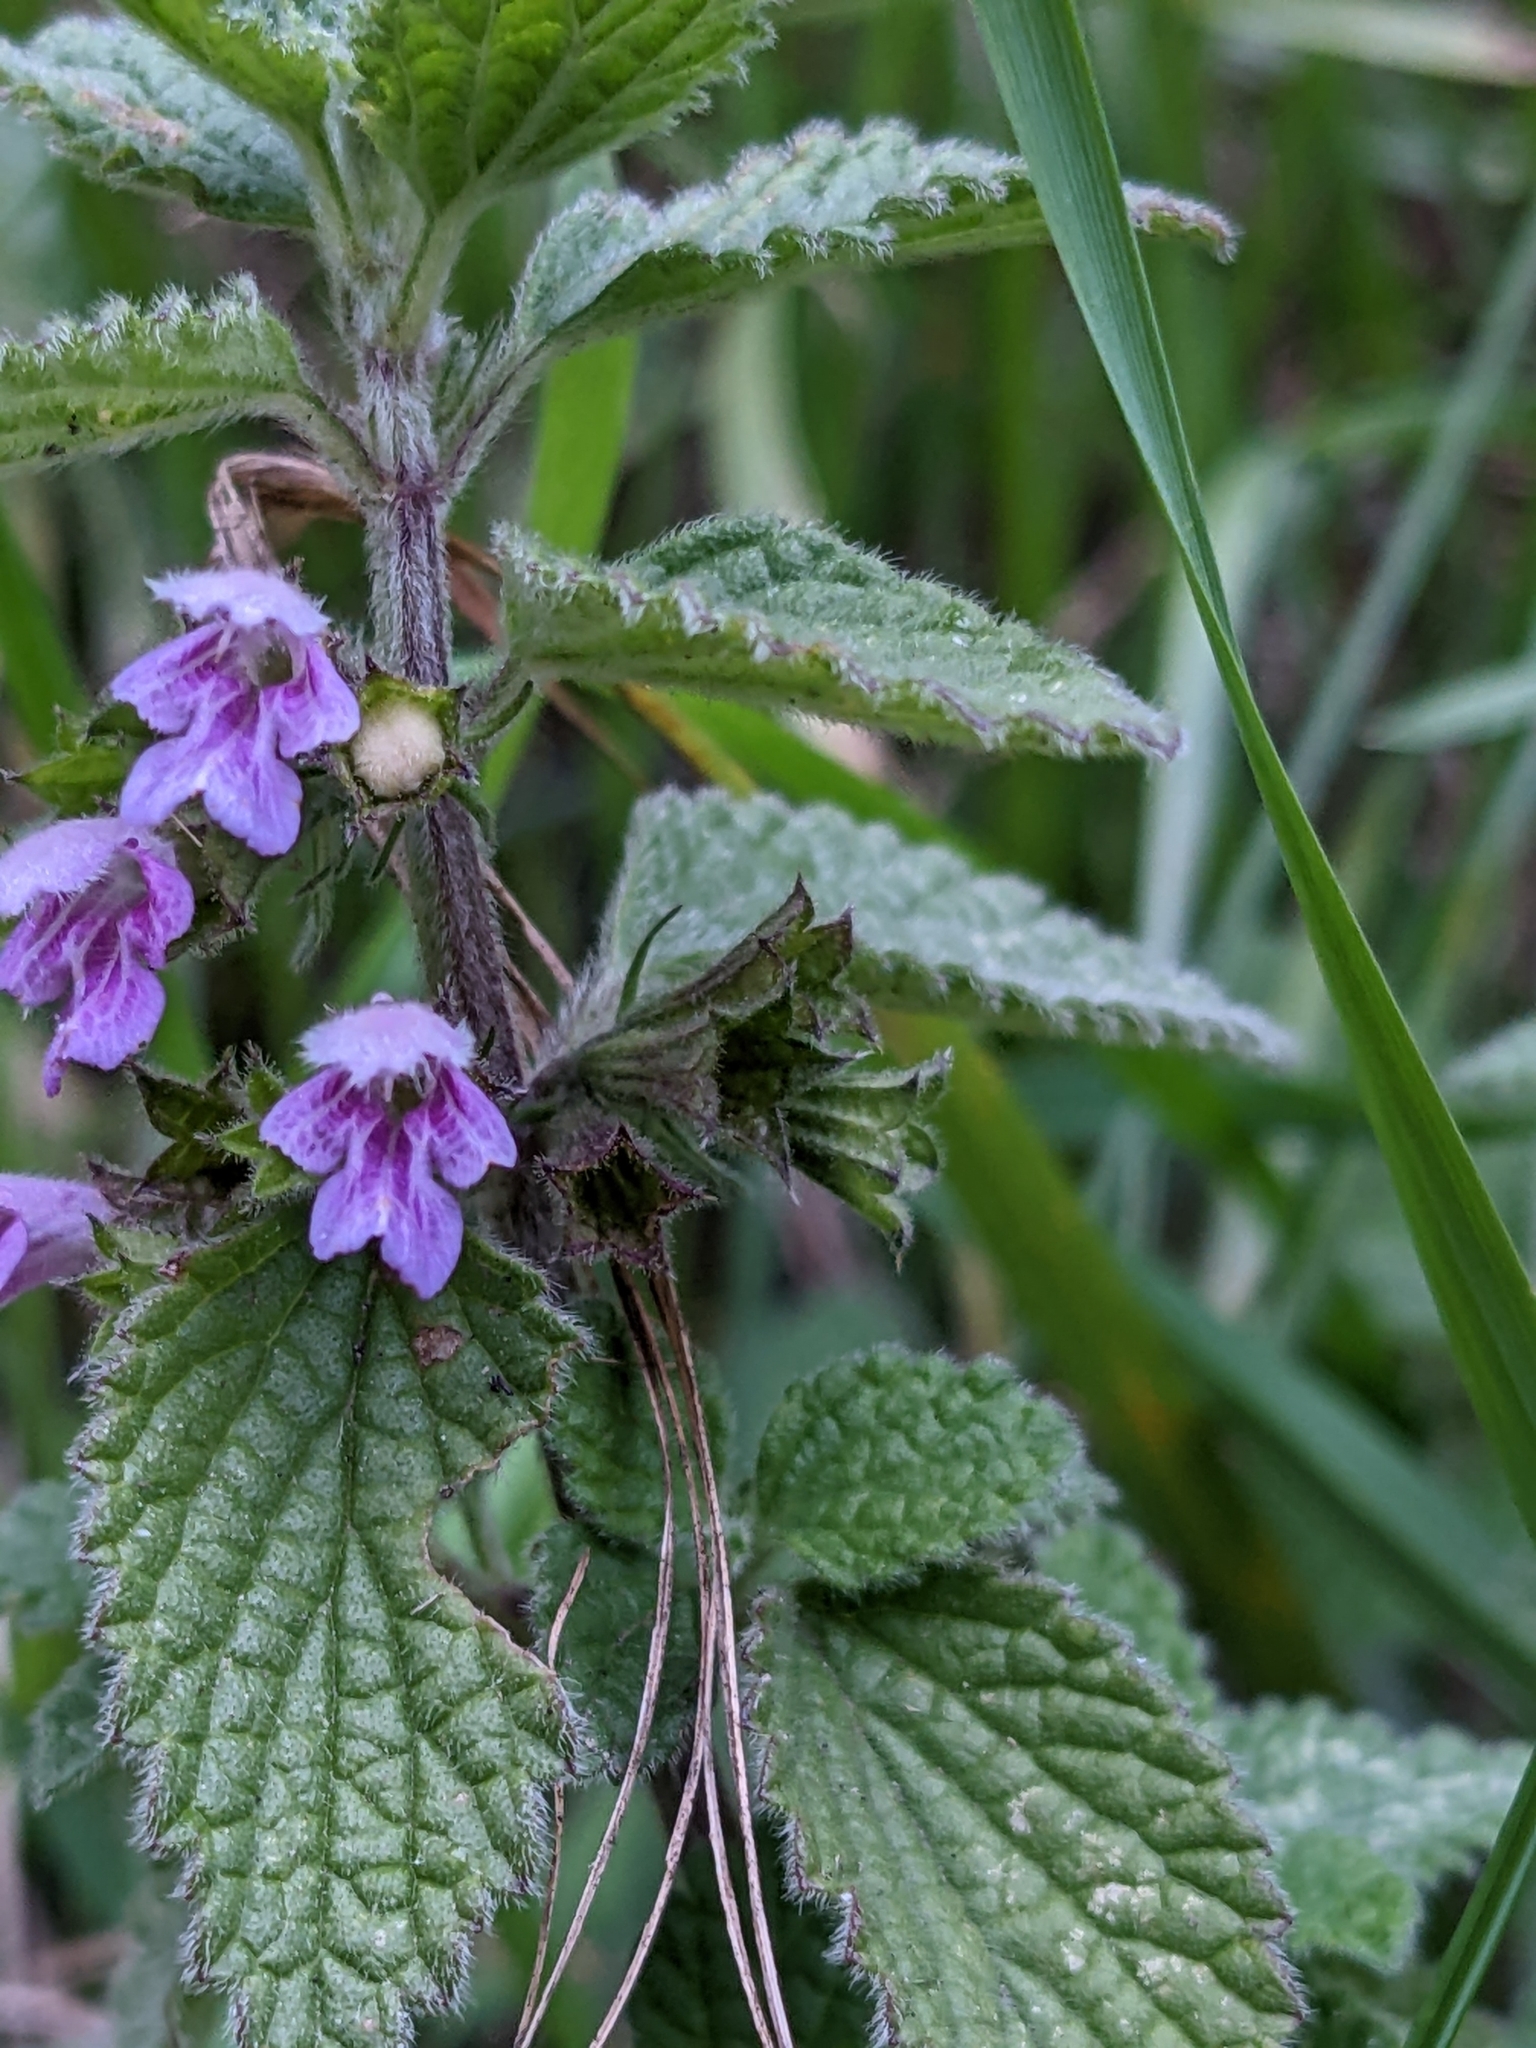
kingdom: Plantae
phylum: Tracheophyta
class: Magnoliopsida
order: Lamiales
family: Lamiaceae
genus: Ballota
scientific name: Ballota nigra
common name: Black horehound
